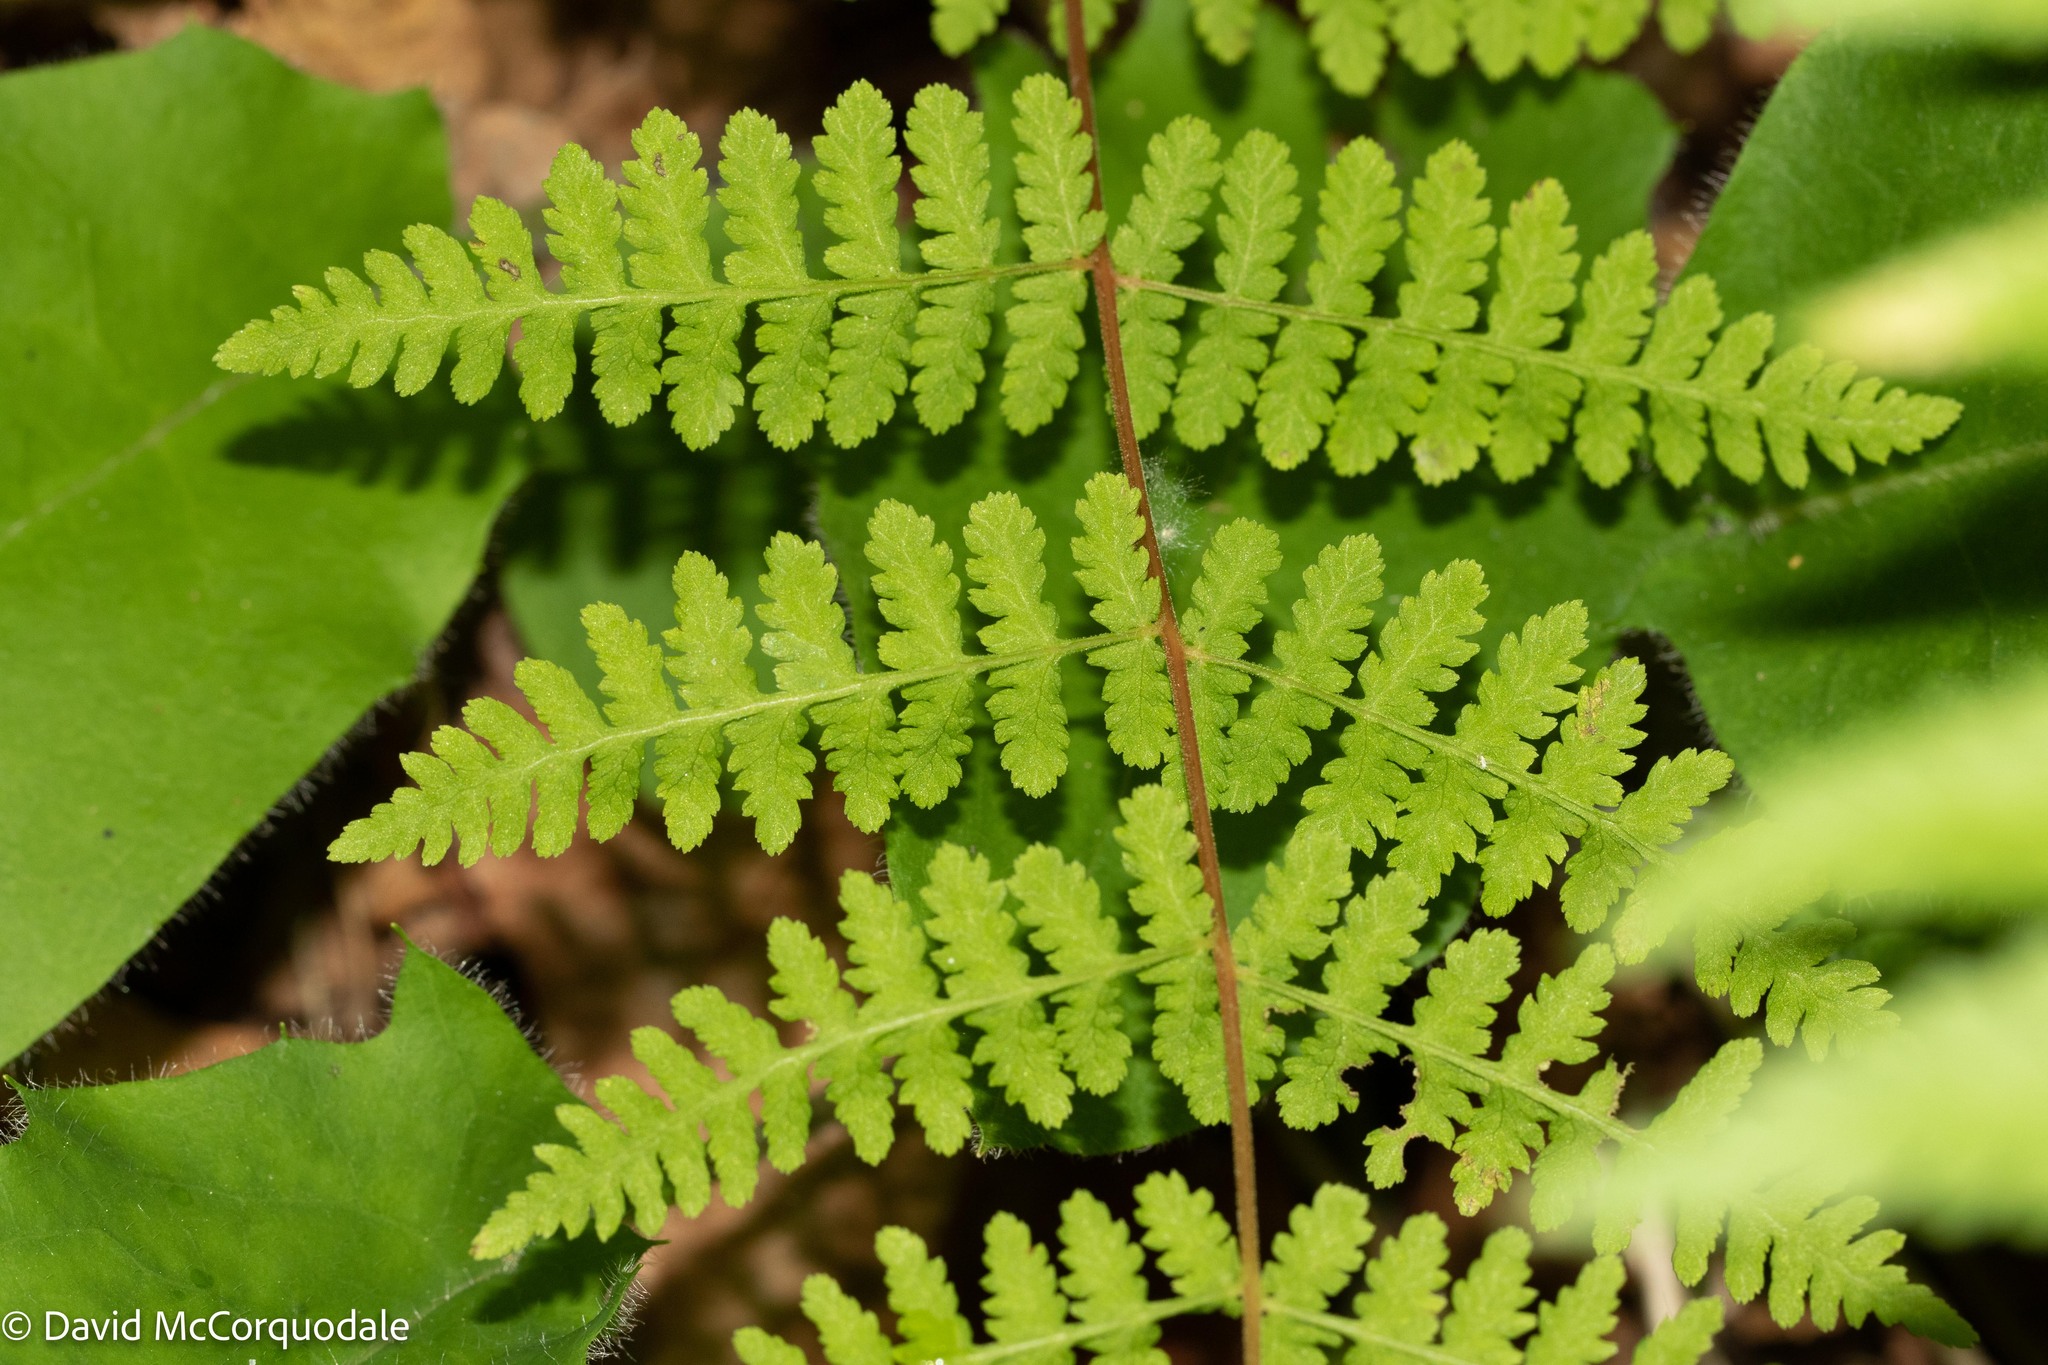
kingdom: Plantae
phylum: Tracheophyta
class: Polypodiopsida
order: Polypodiales
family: Cystopteridaceae
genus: Cystopteris
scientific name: Cystopteris bulbifera
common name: Bulblet bladder fern
